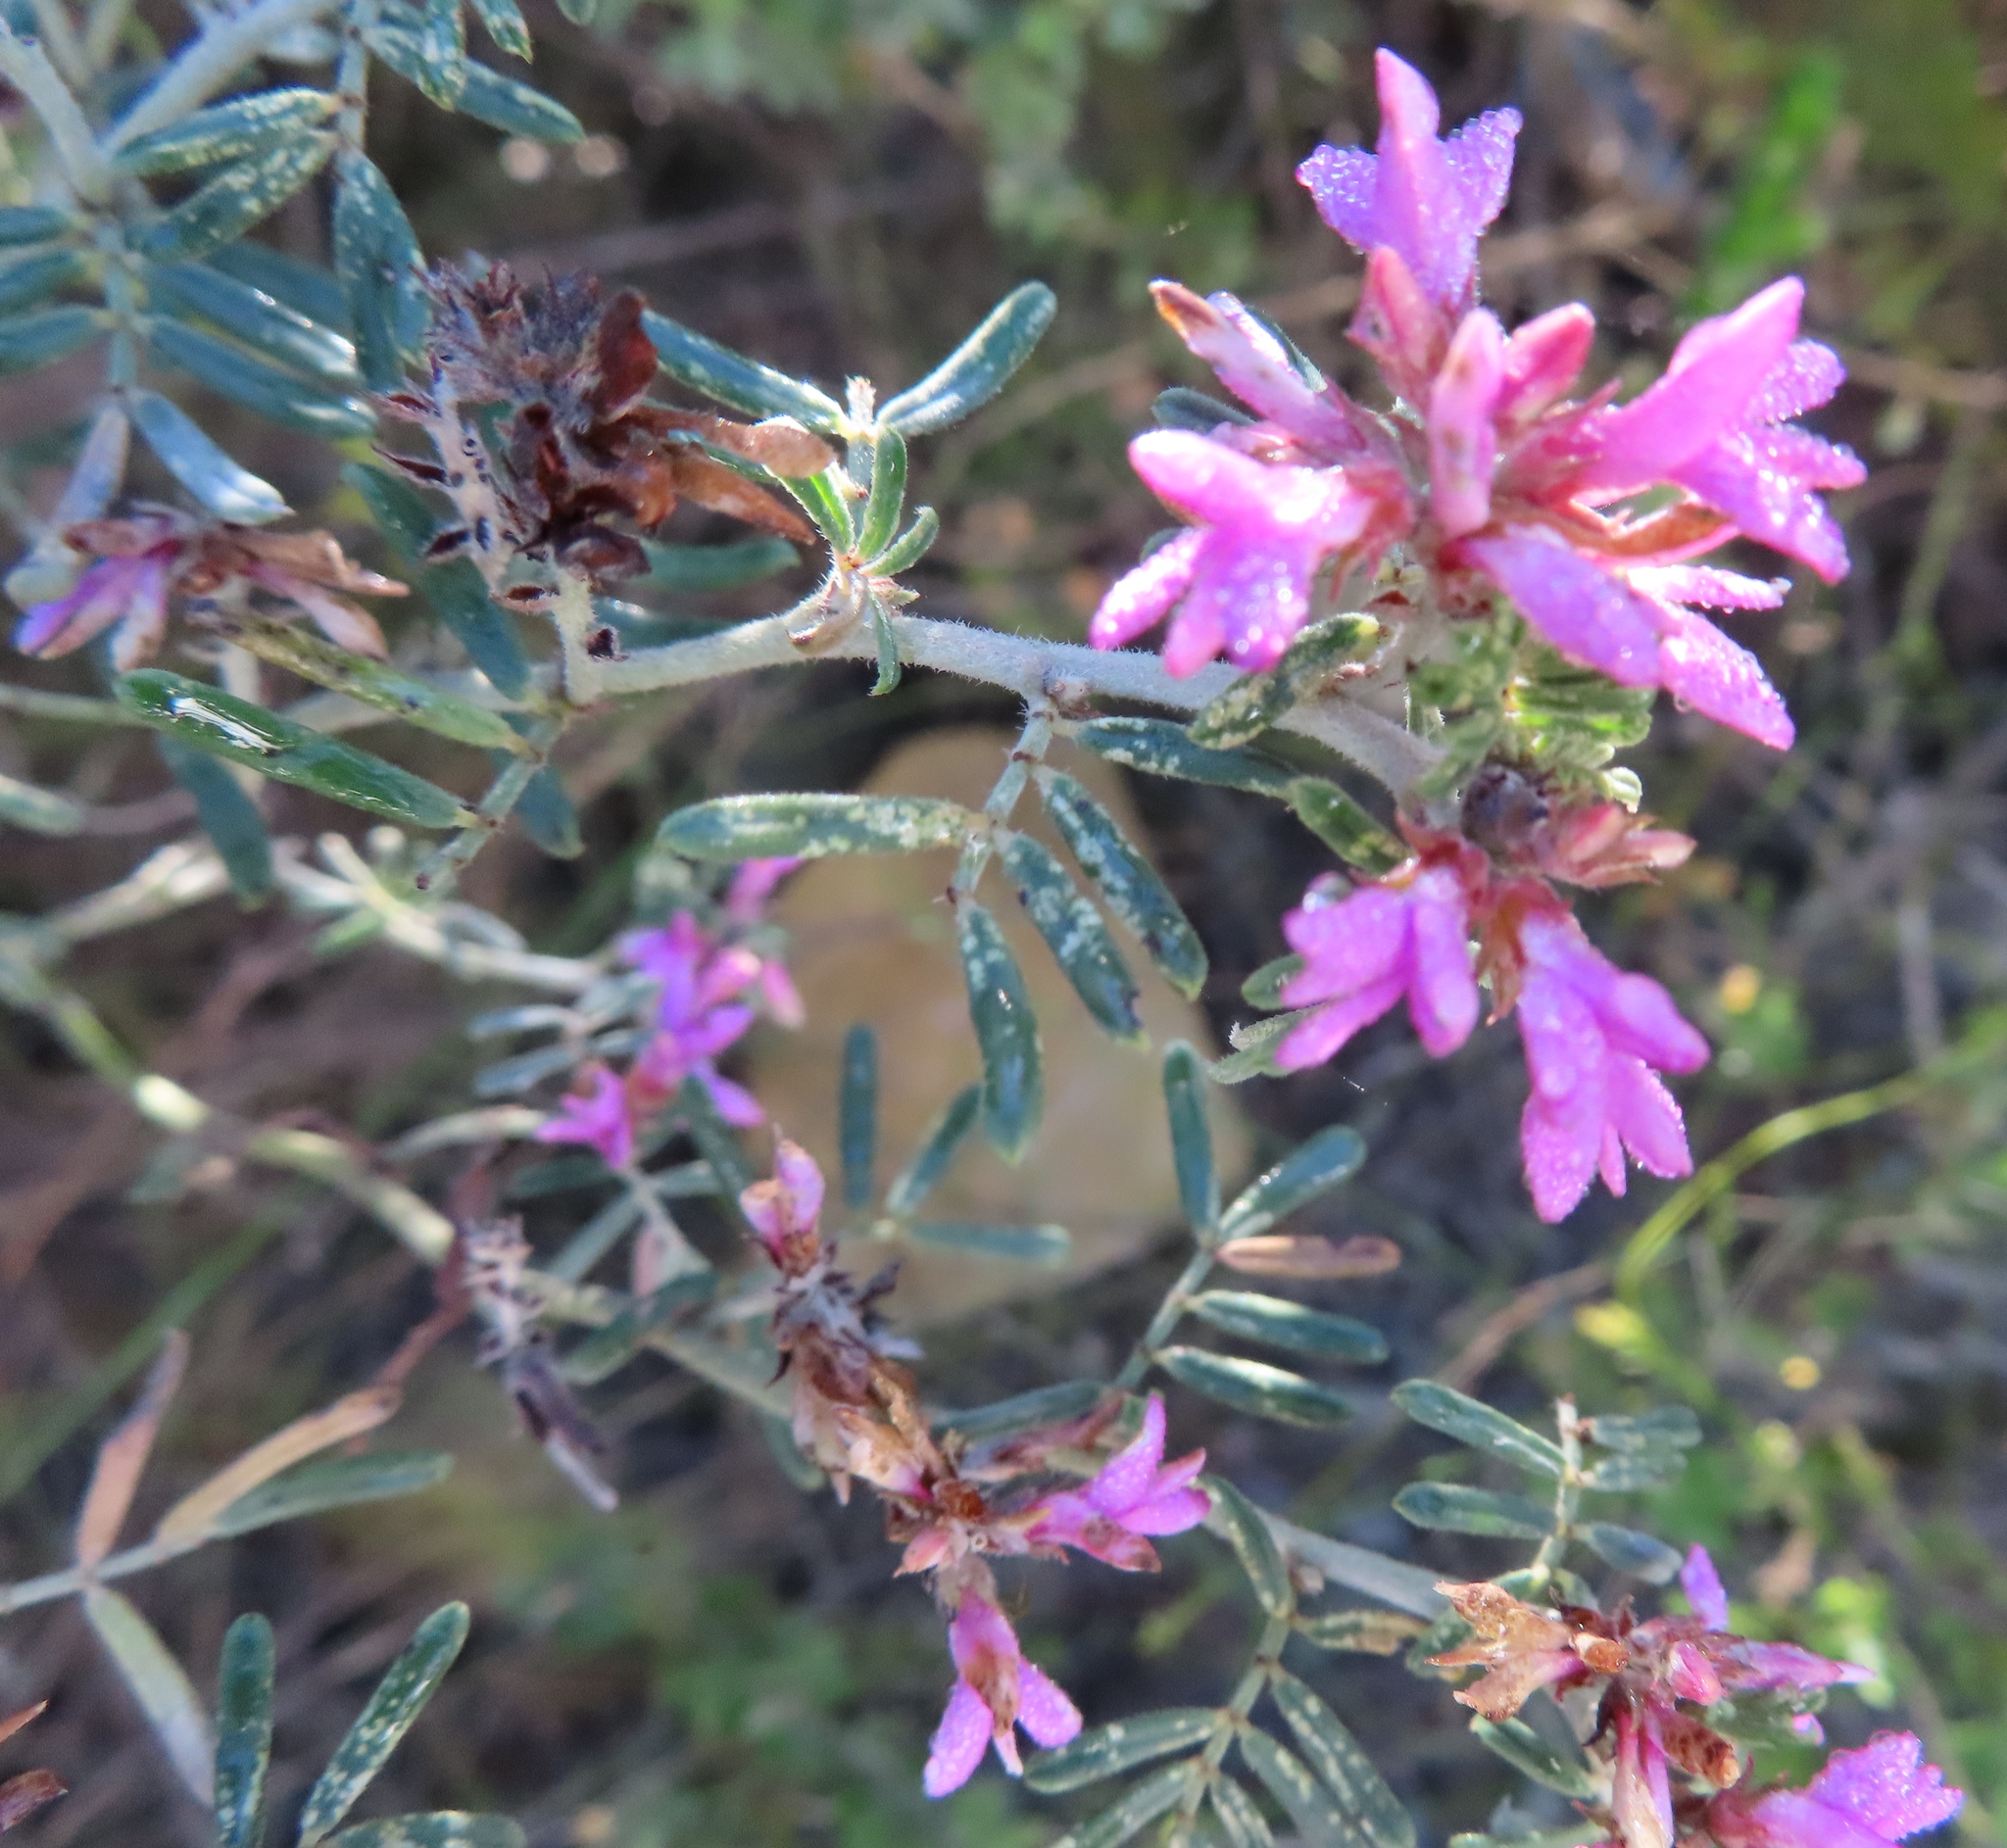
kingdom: Plantae
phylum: Tracheophyta
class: Magnoliopsida
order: Fabales
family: Fabaceae
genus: Microcharis
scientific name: Microcharis praetermissa
